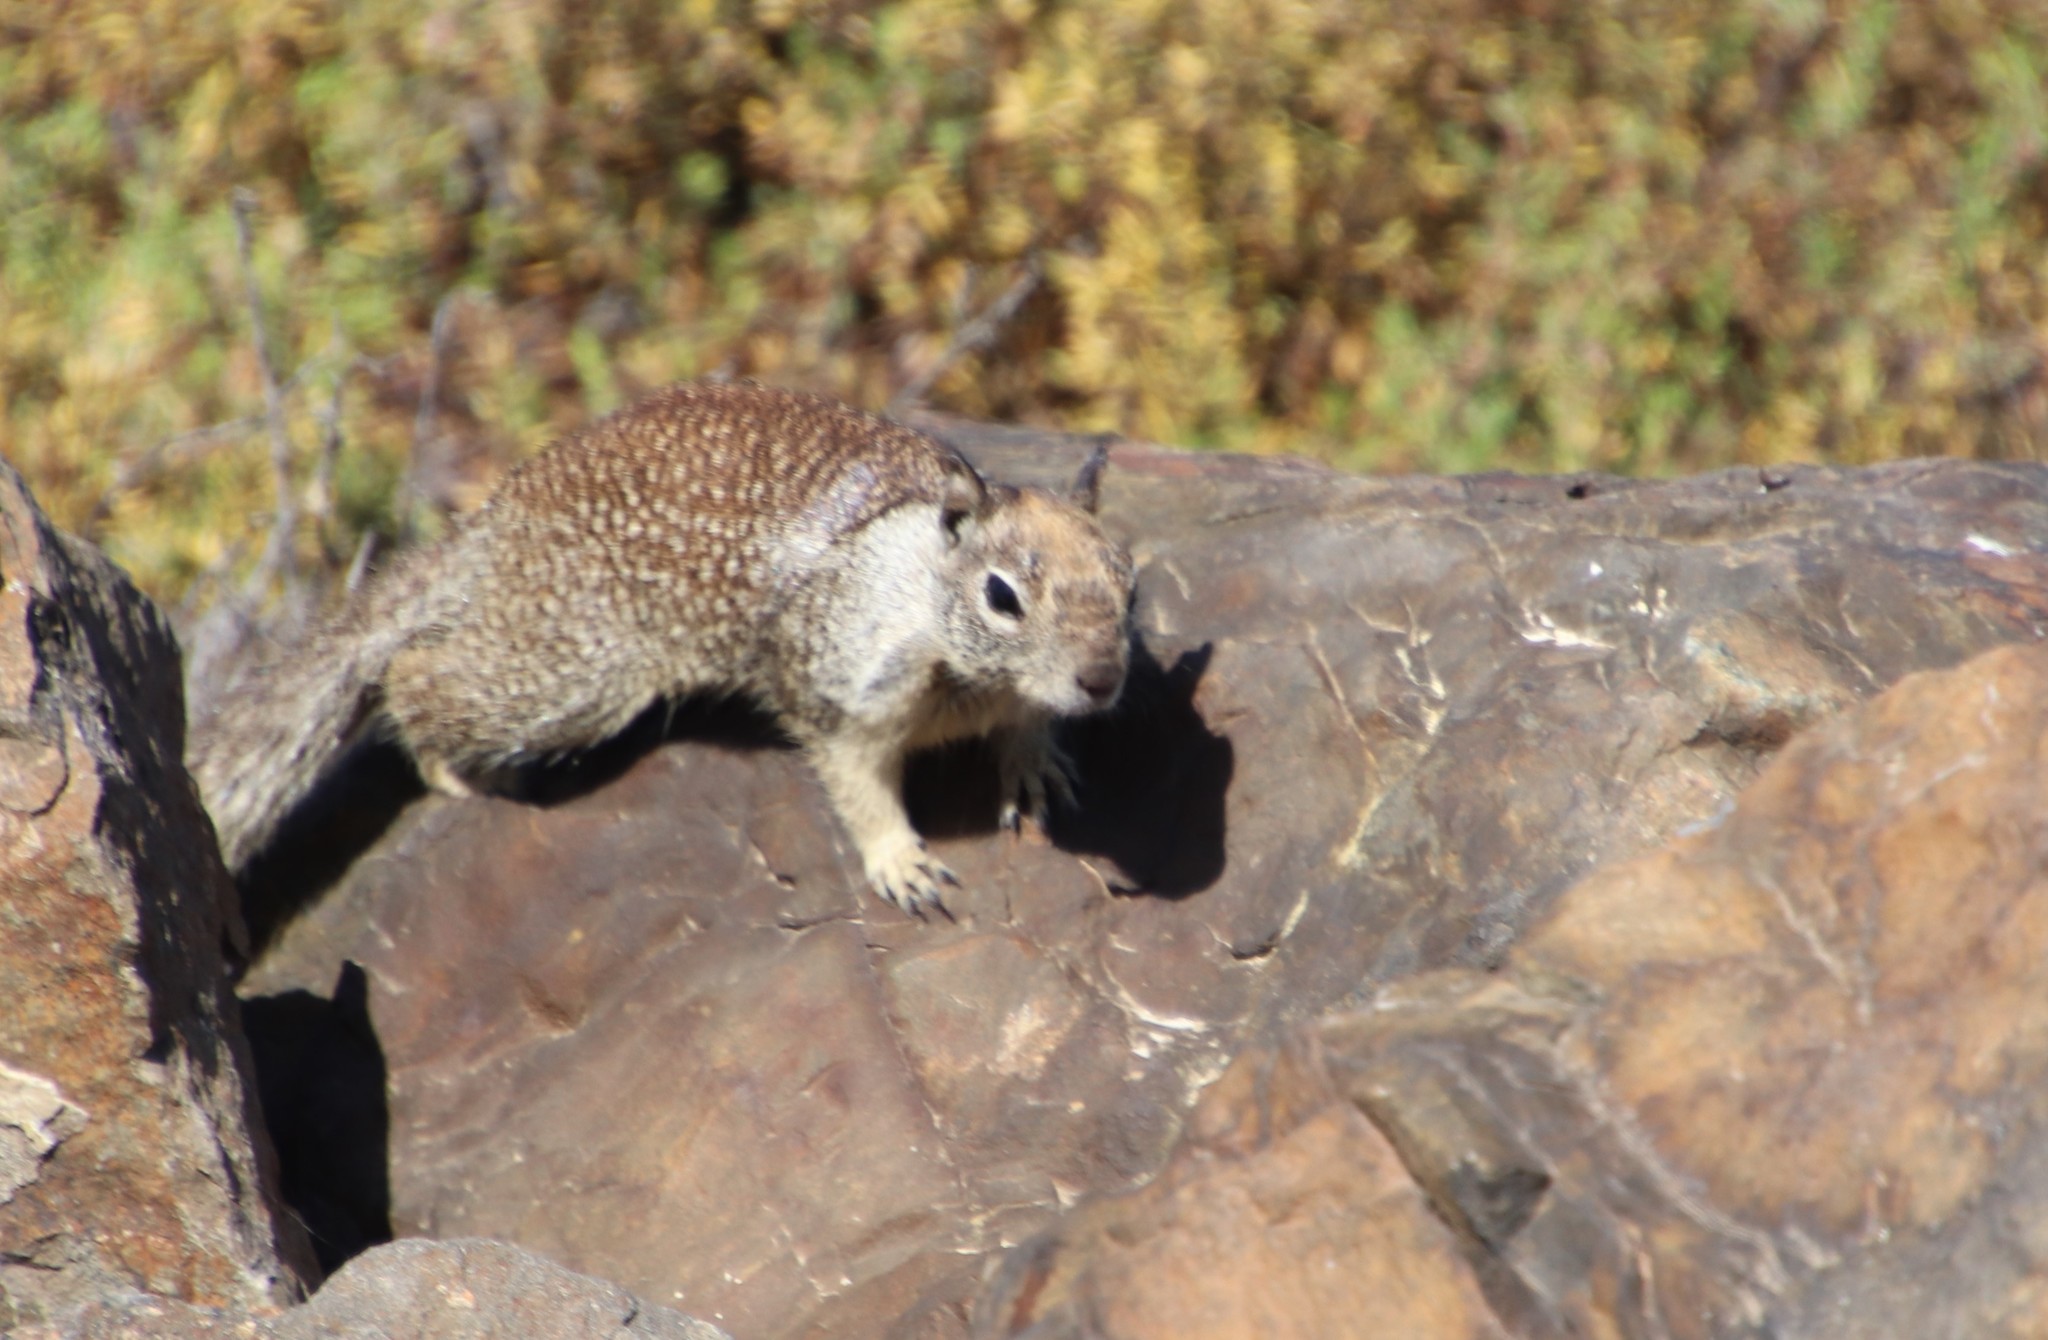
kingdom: Animalia
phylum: Chordata
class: Mammalia
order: Rodentia
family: Sciuridae
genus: Otospermophilus
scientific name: Otospermophilus beecheyi
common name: California ground squirrel
